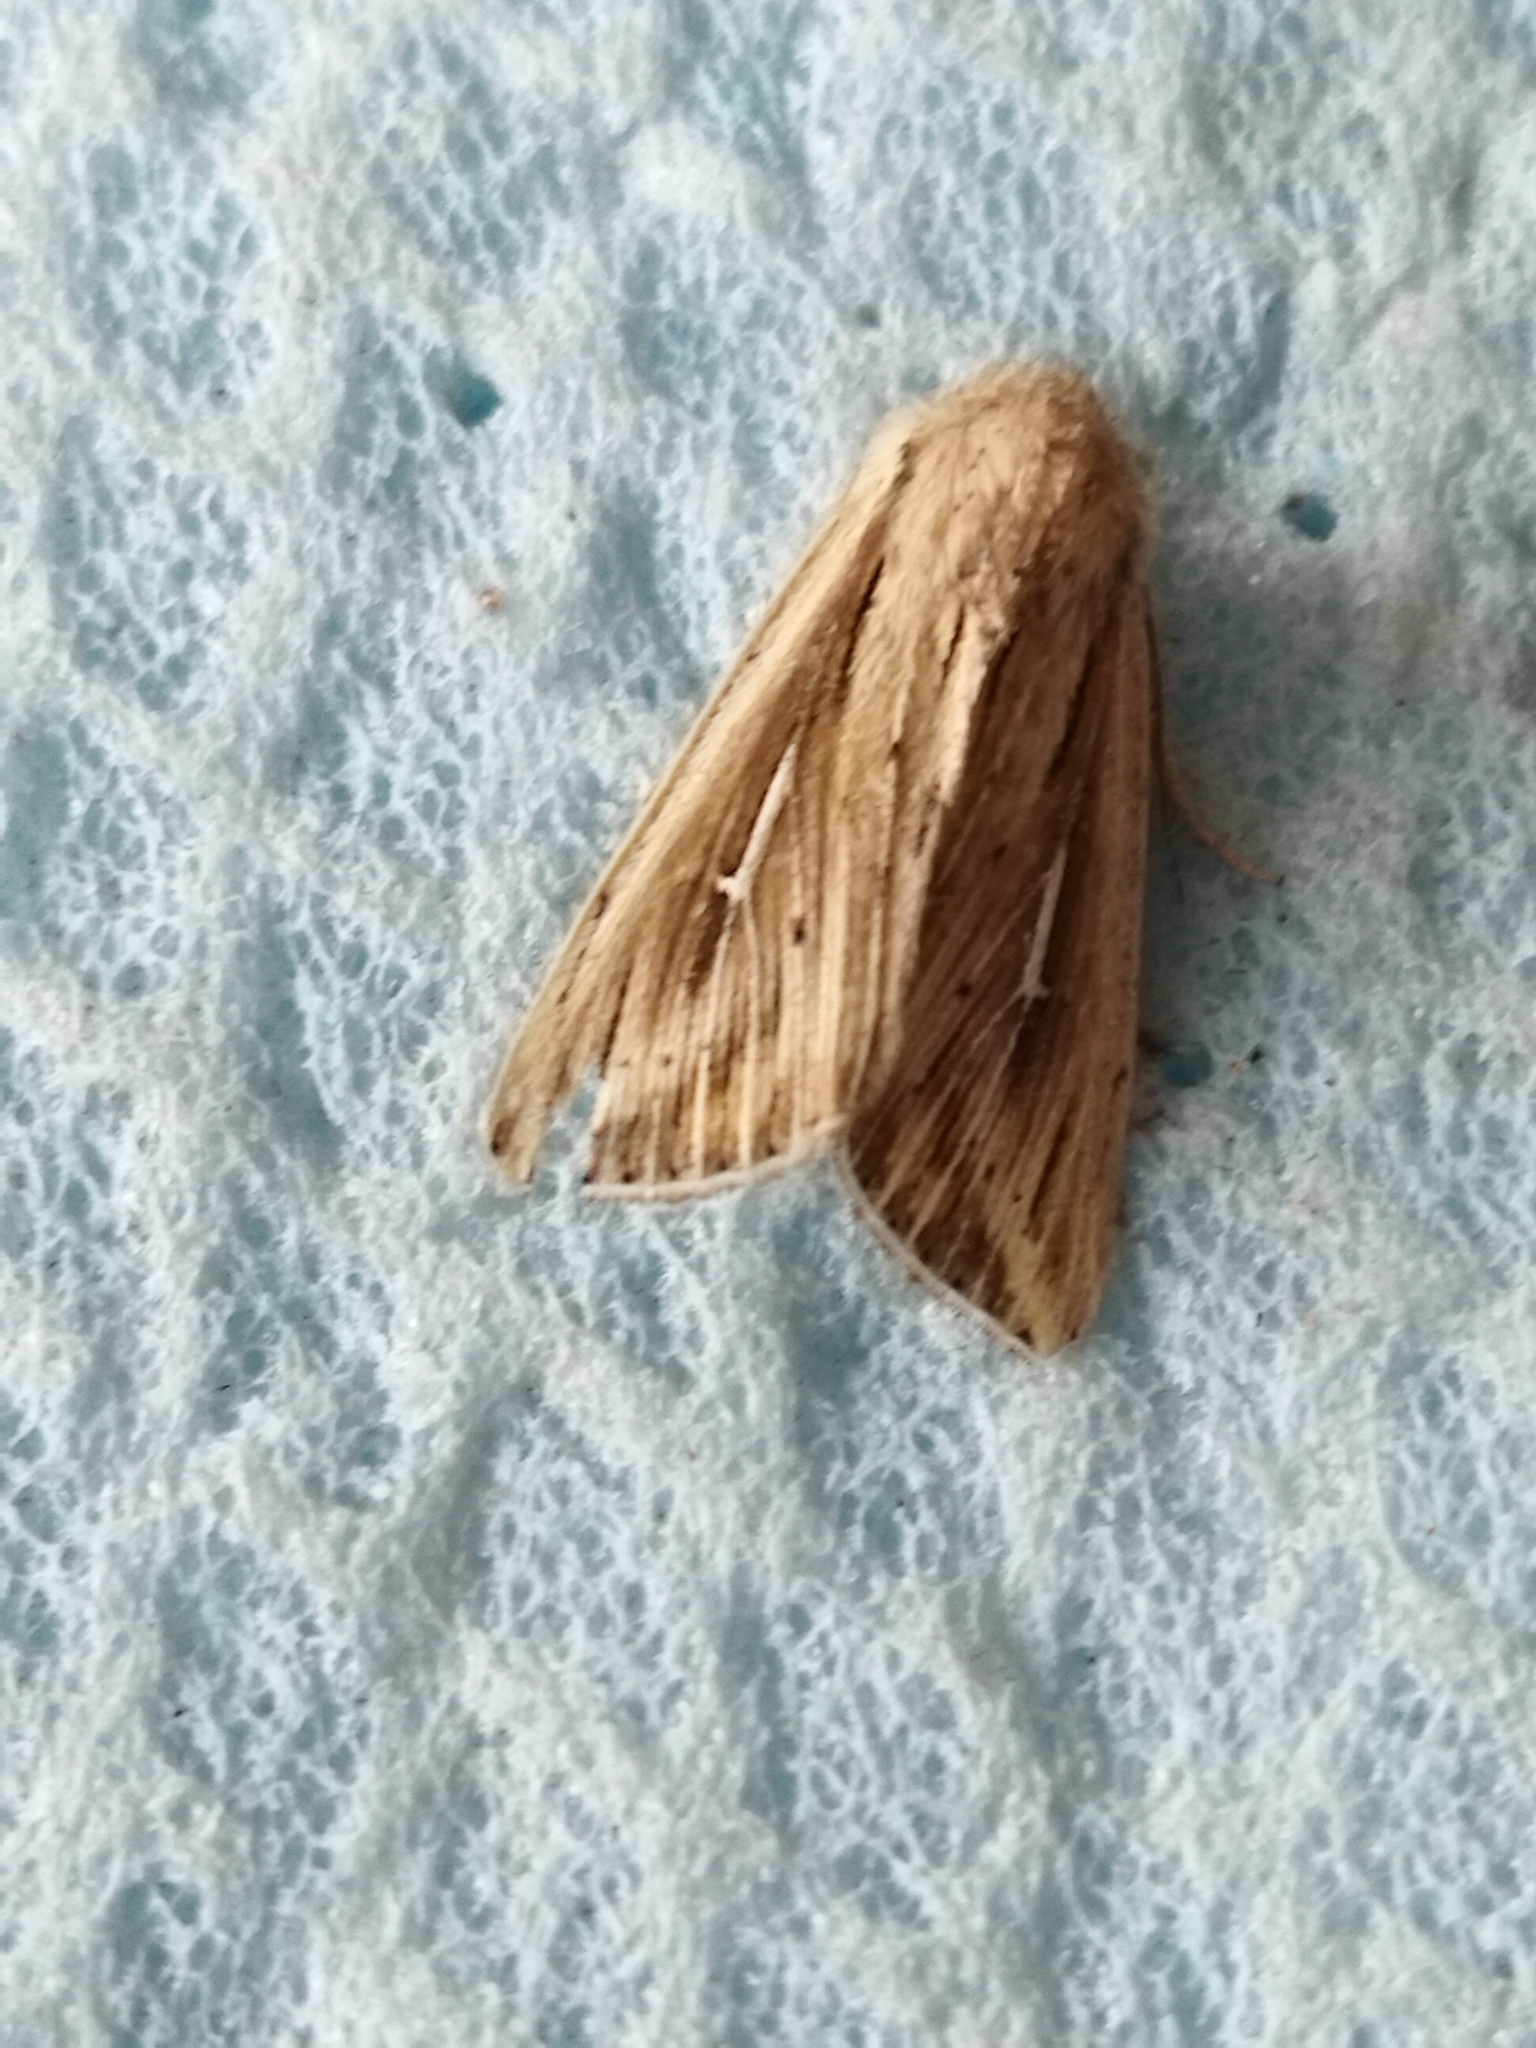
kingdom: Animalia
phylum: Arthropoda
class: Insecta
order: Lepidoptera
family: Noctuidae
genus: Mythimna
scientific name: Mythimna l-album
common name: L-album wainscot
